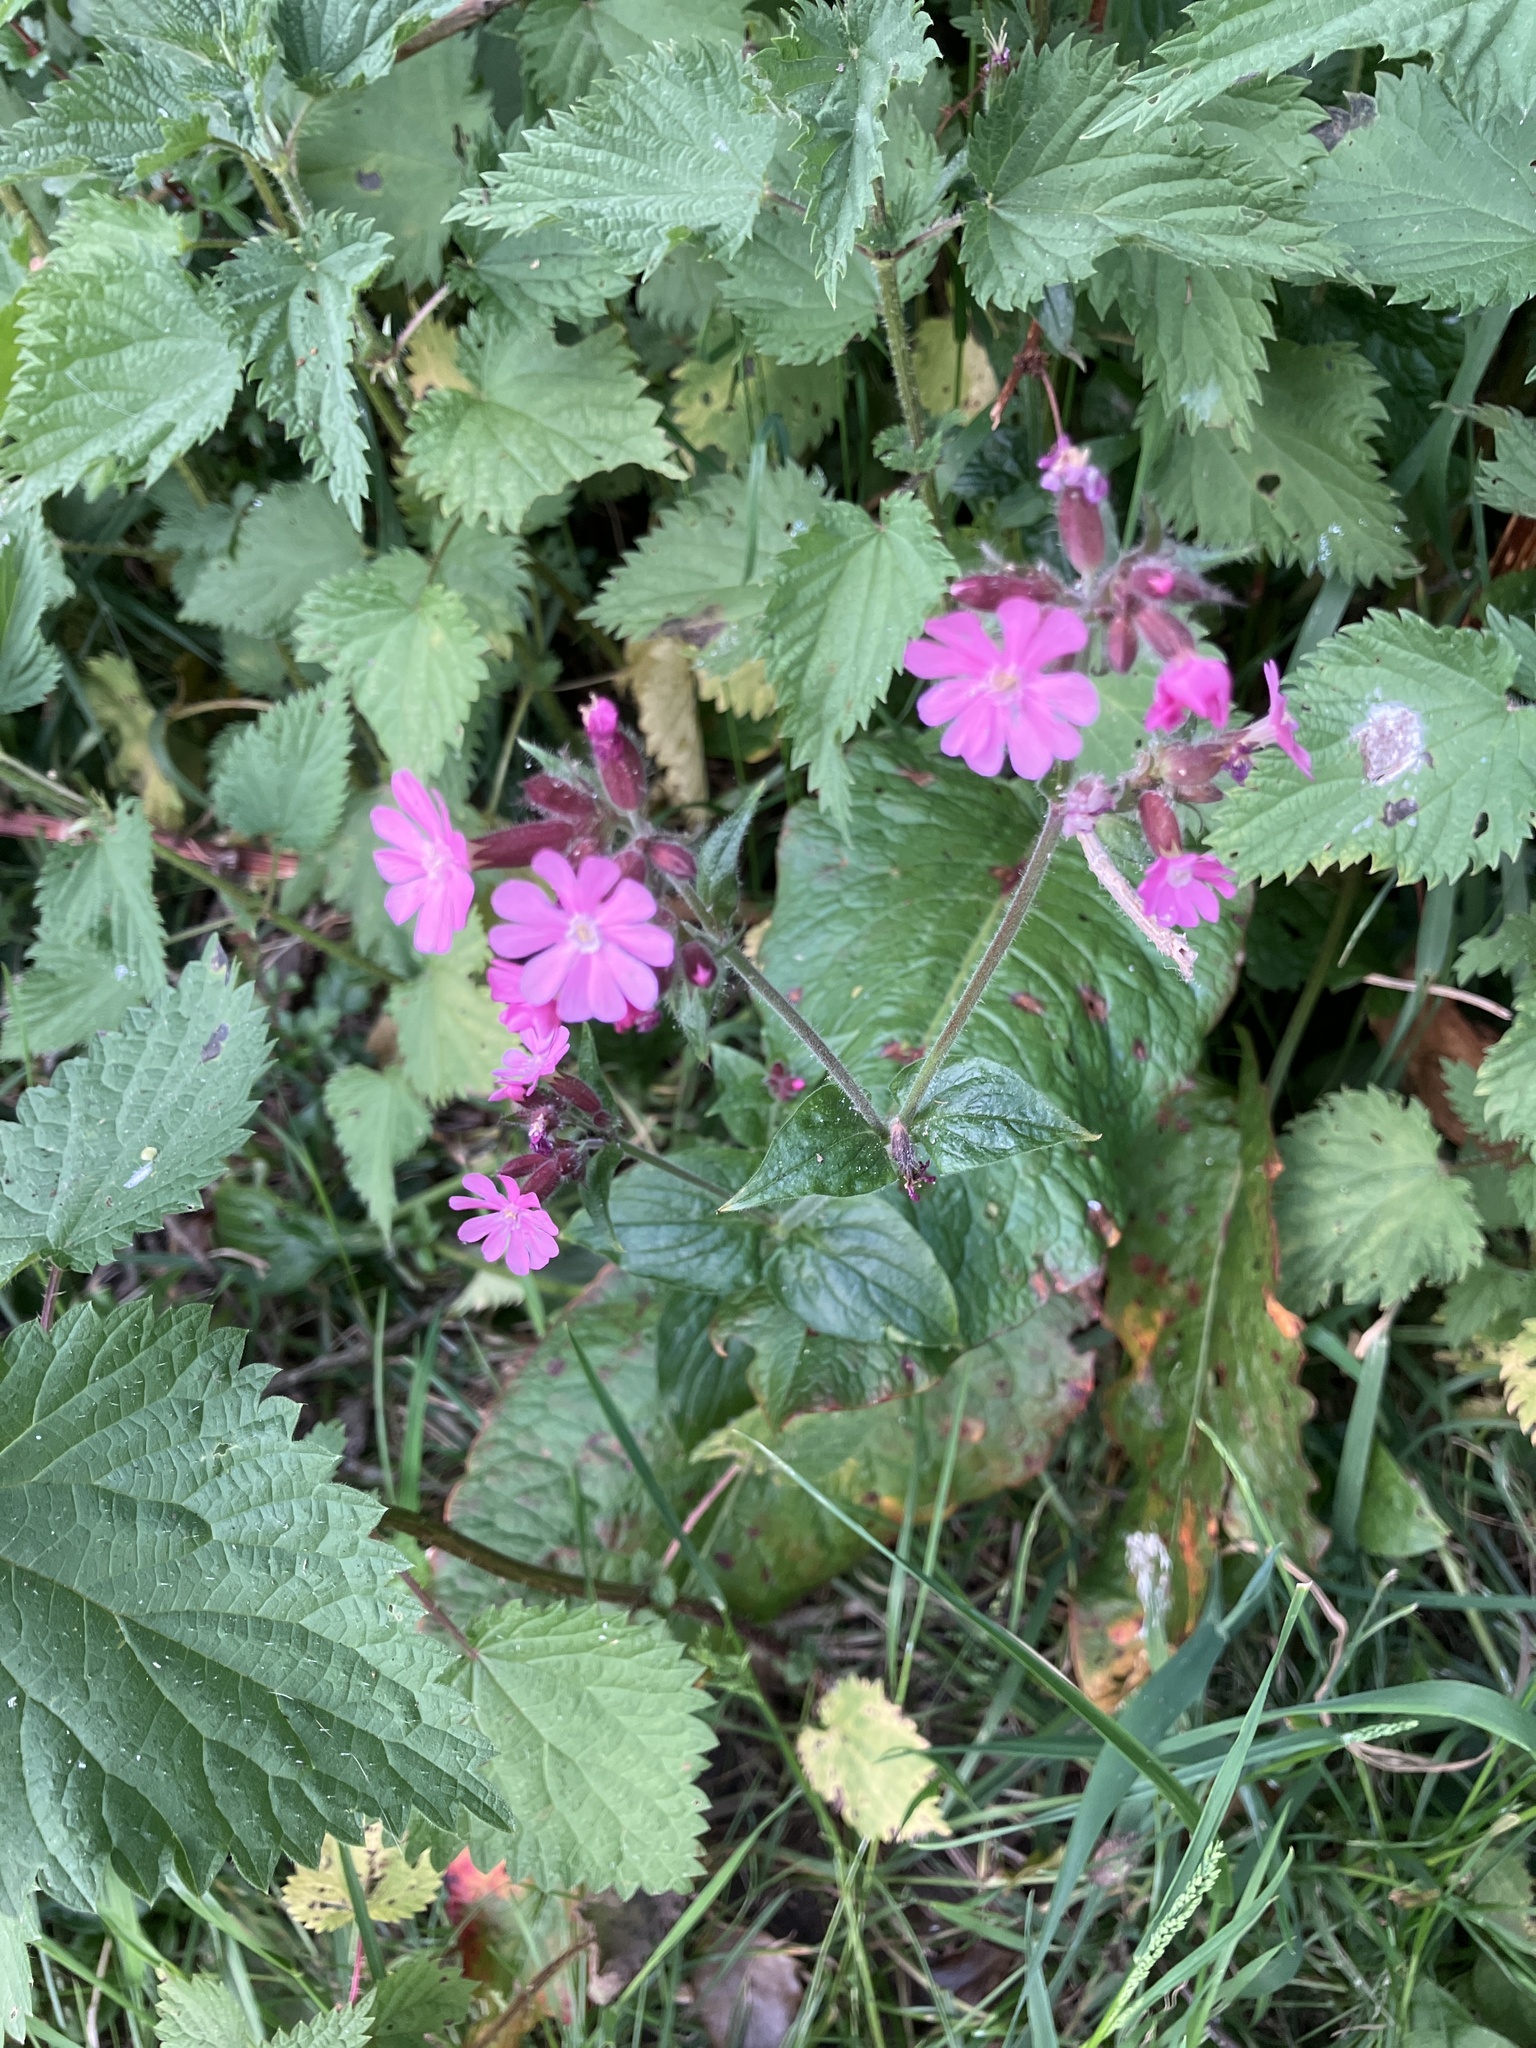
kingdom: Plantae
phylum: Tracheophyta
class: Magnoliopsida
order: Caryophyllales
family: Caryophyllaceae
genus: Silene
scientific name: Silene dioica
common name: Red campion
